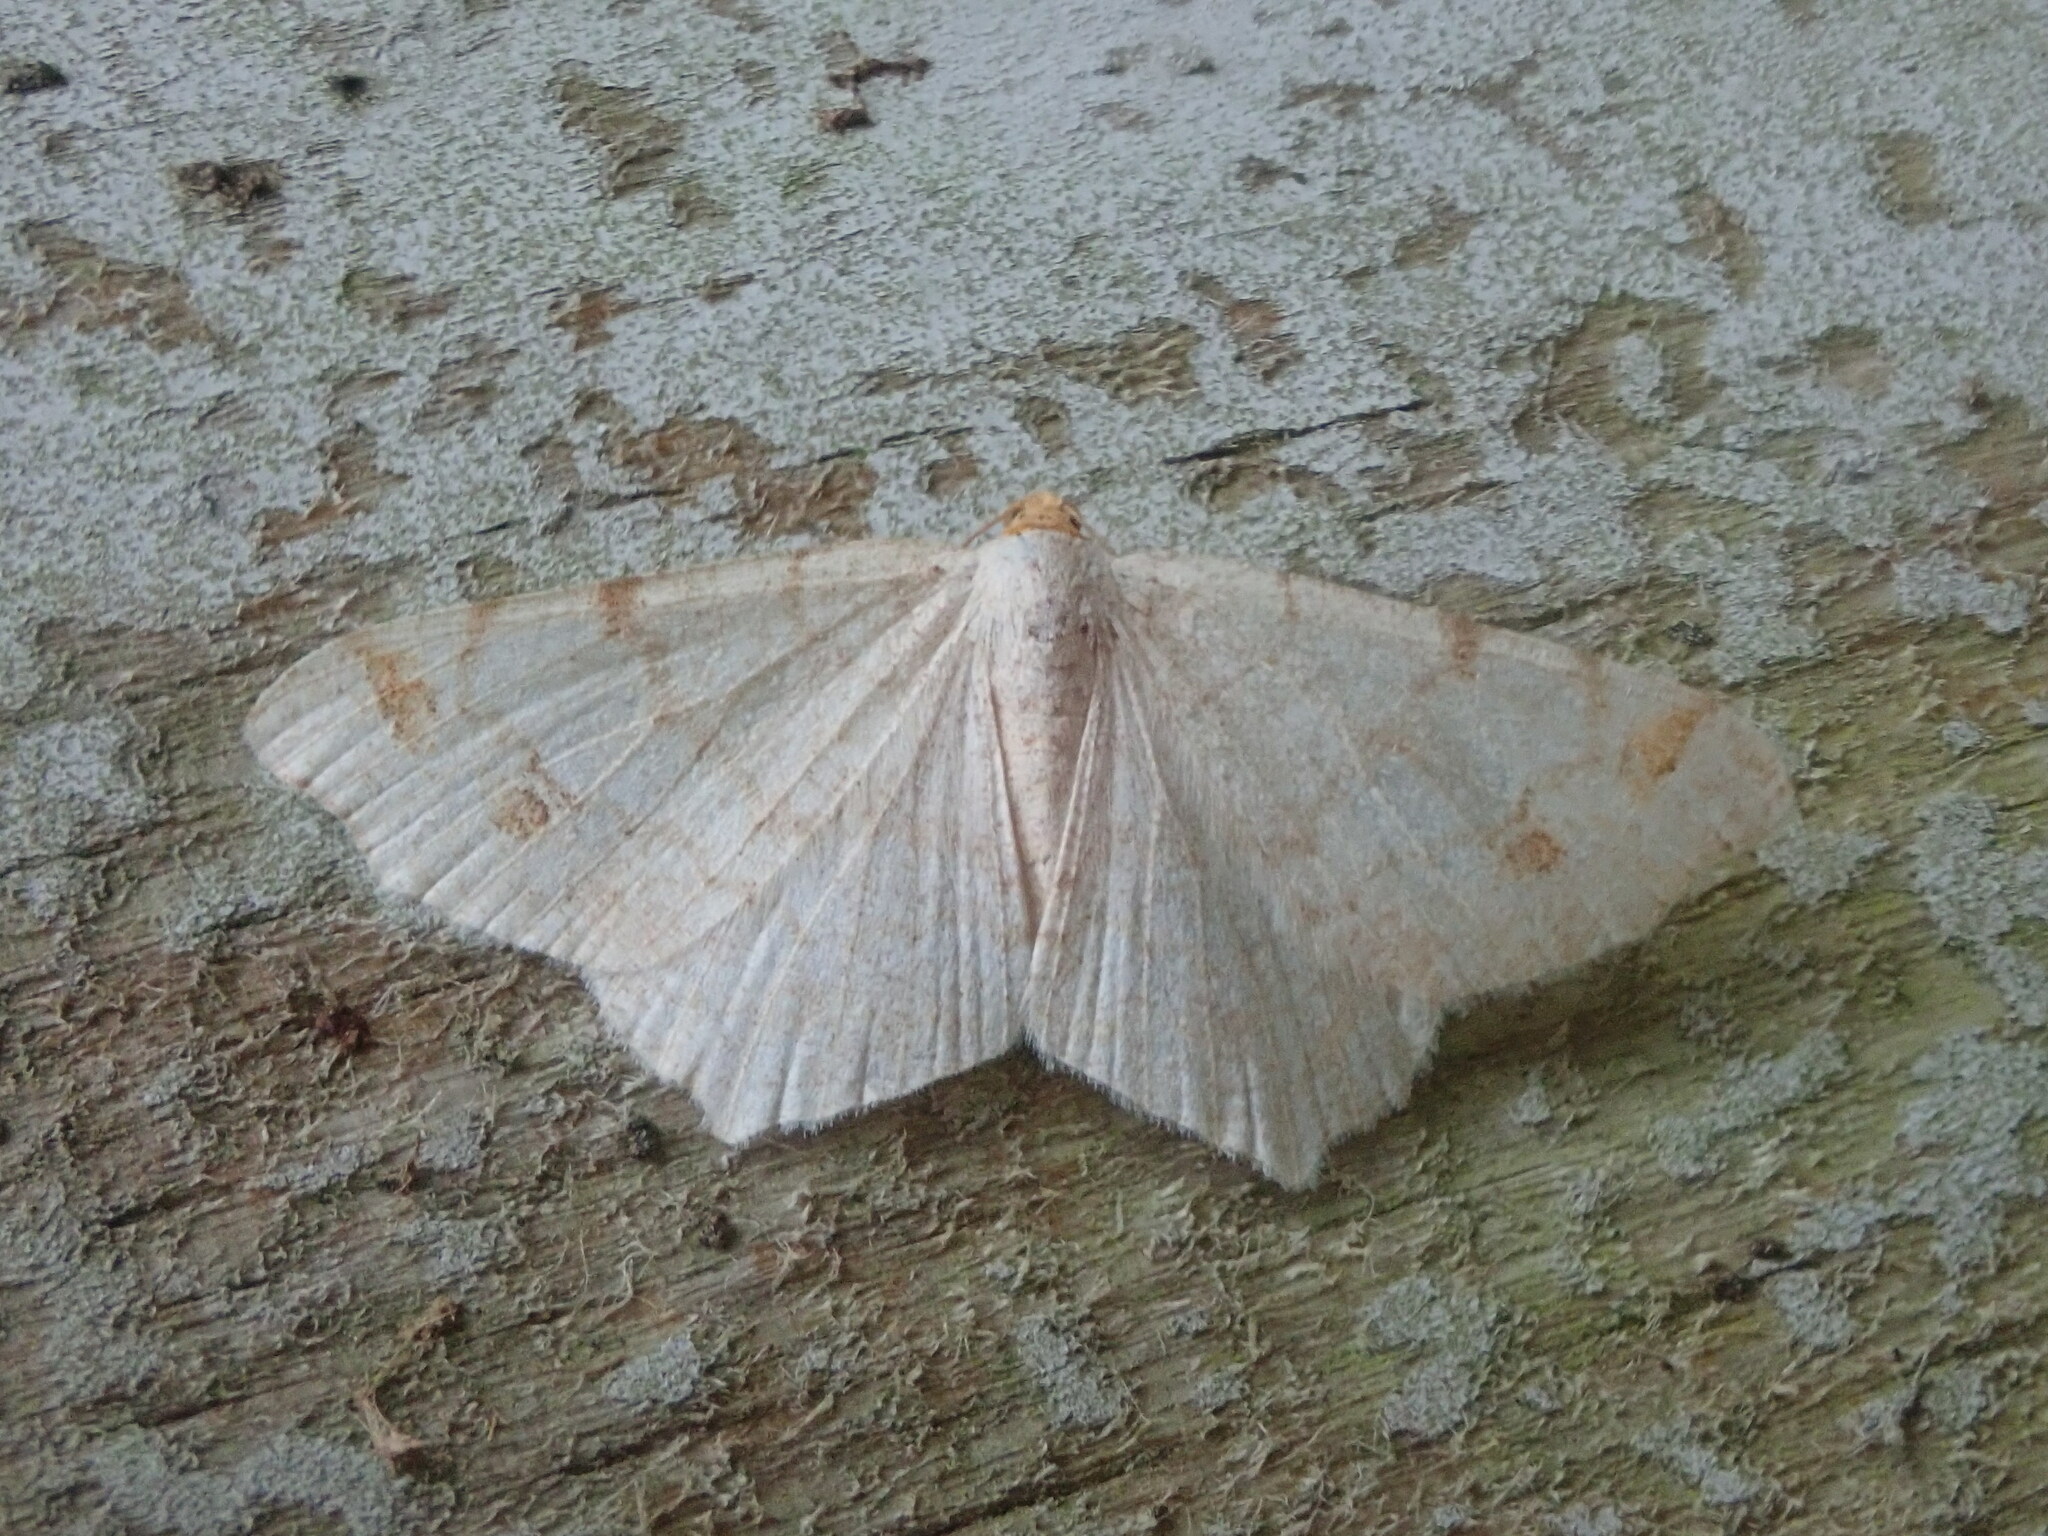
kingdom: Animalia
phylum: Arthropoda
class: Insecta
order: Lepidoptera
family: Geometridae
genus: Macaria
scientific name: Macaria bisignata
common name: Red-headed inchworm
